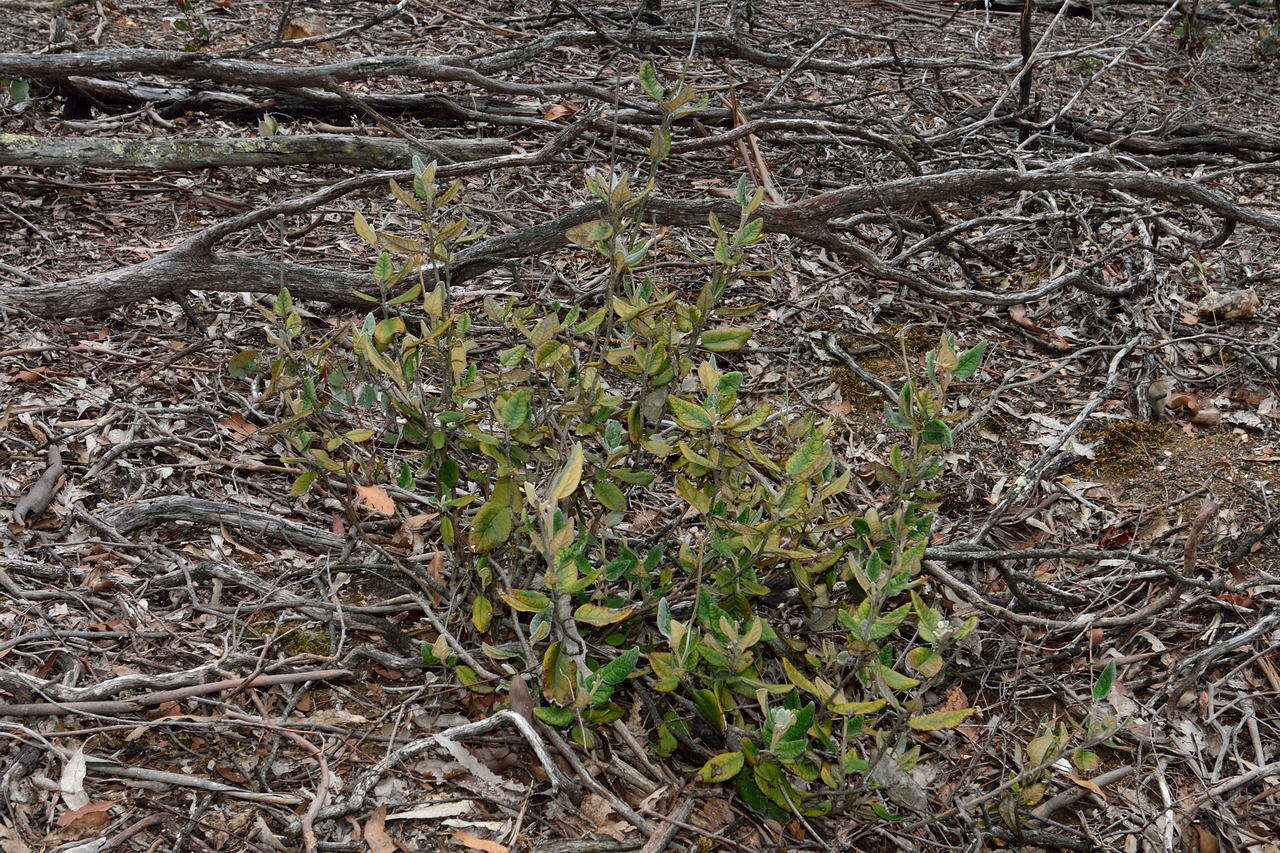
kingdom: Plantae
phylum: Tracheophyta
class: Magnoliopsida
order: Asterales
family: Asteraceae
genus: Olearia
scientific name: Olearia pannosa
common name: Velvet daisybush
